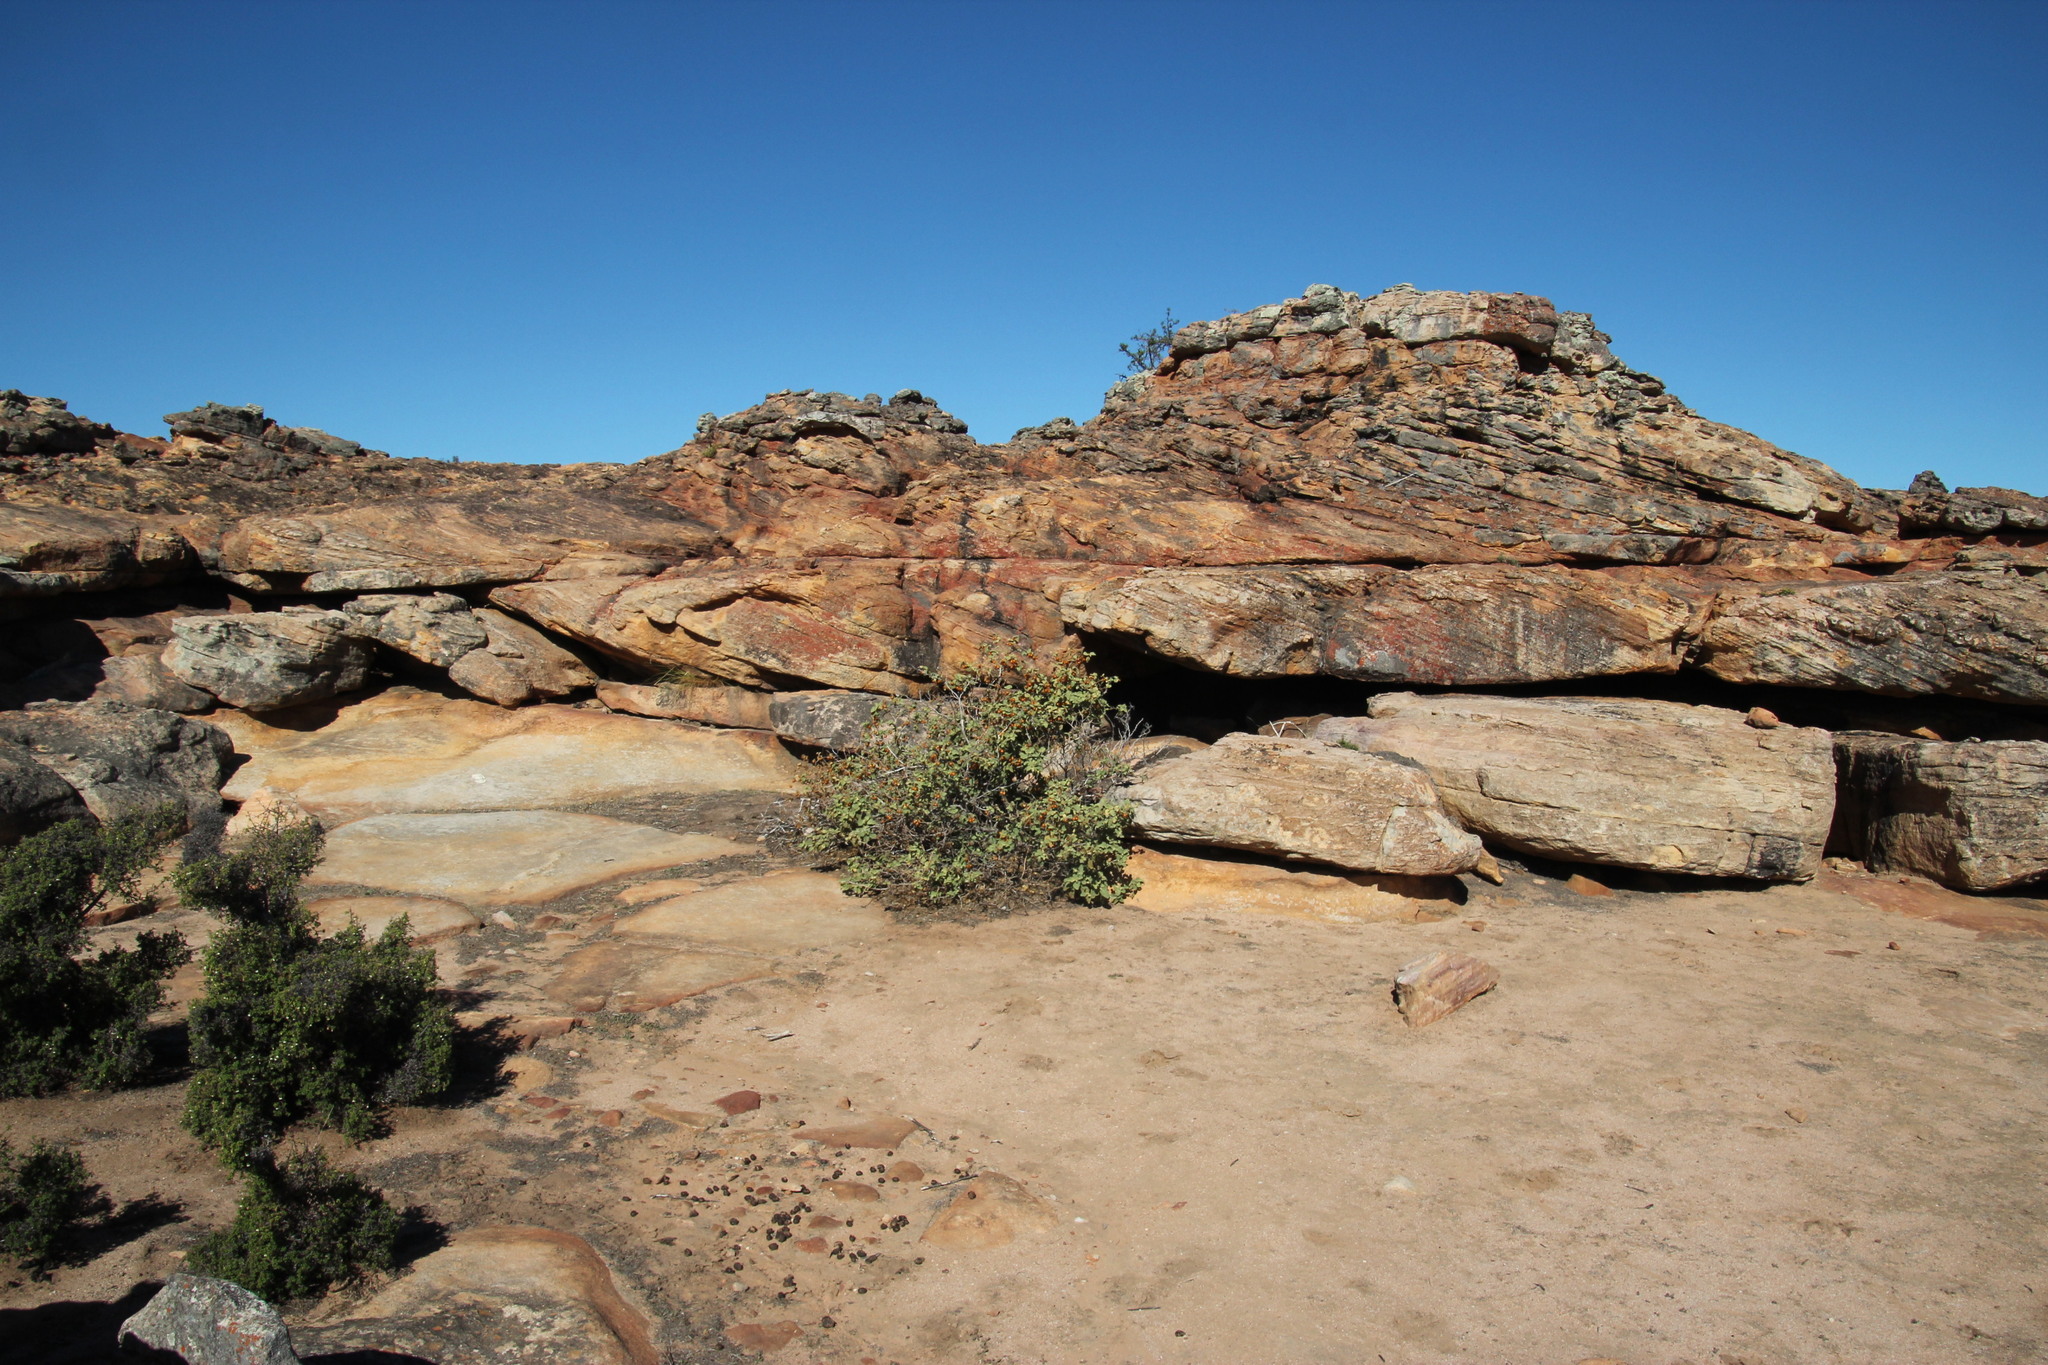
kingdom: Plantae
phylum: Tracheophyta
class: Magnoliopsida
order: Solanales
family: Solanaceae
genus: Solanum
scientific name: Solanum tomentosum
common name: Wild aubergine
